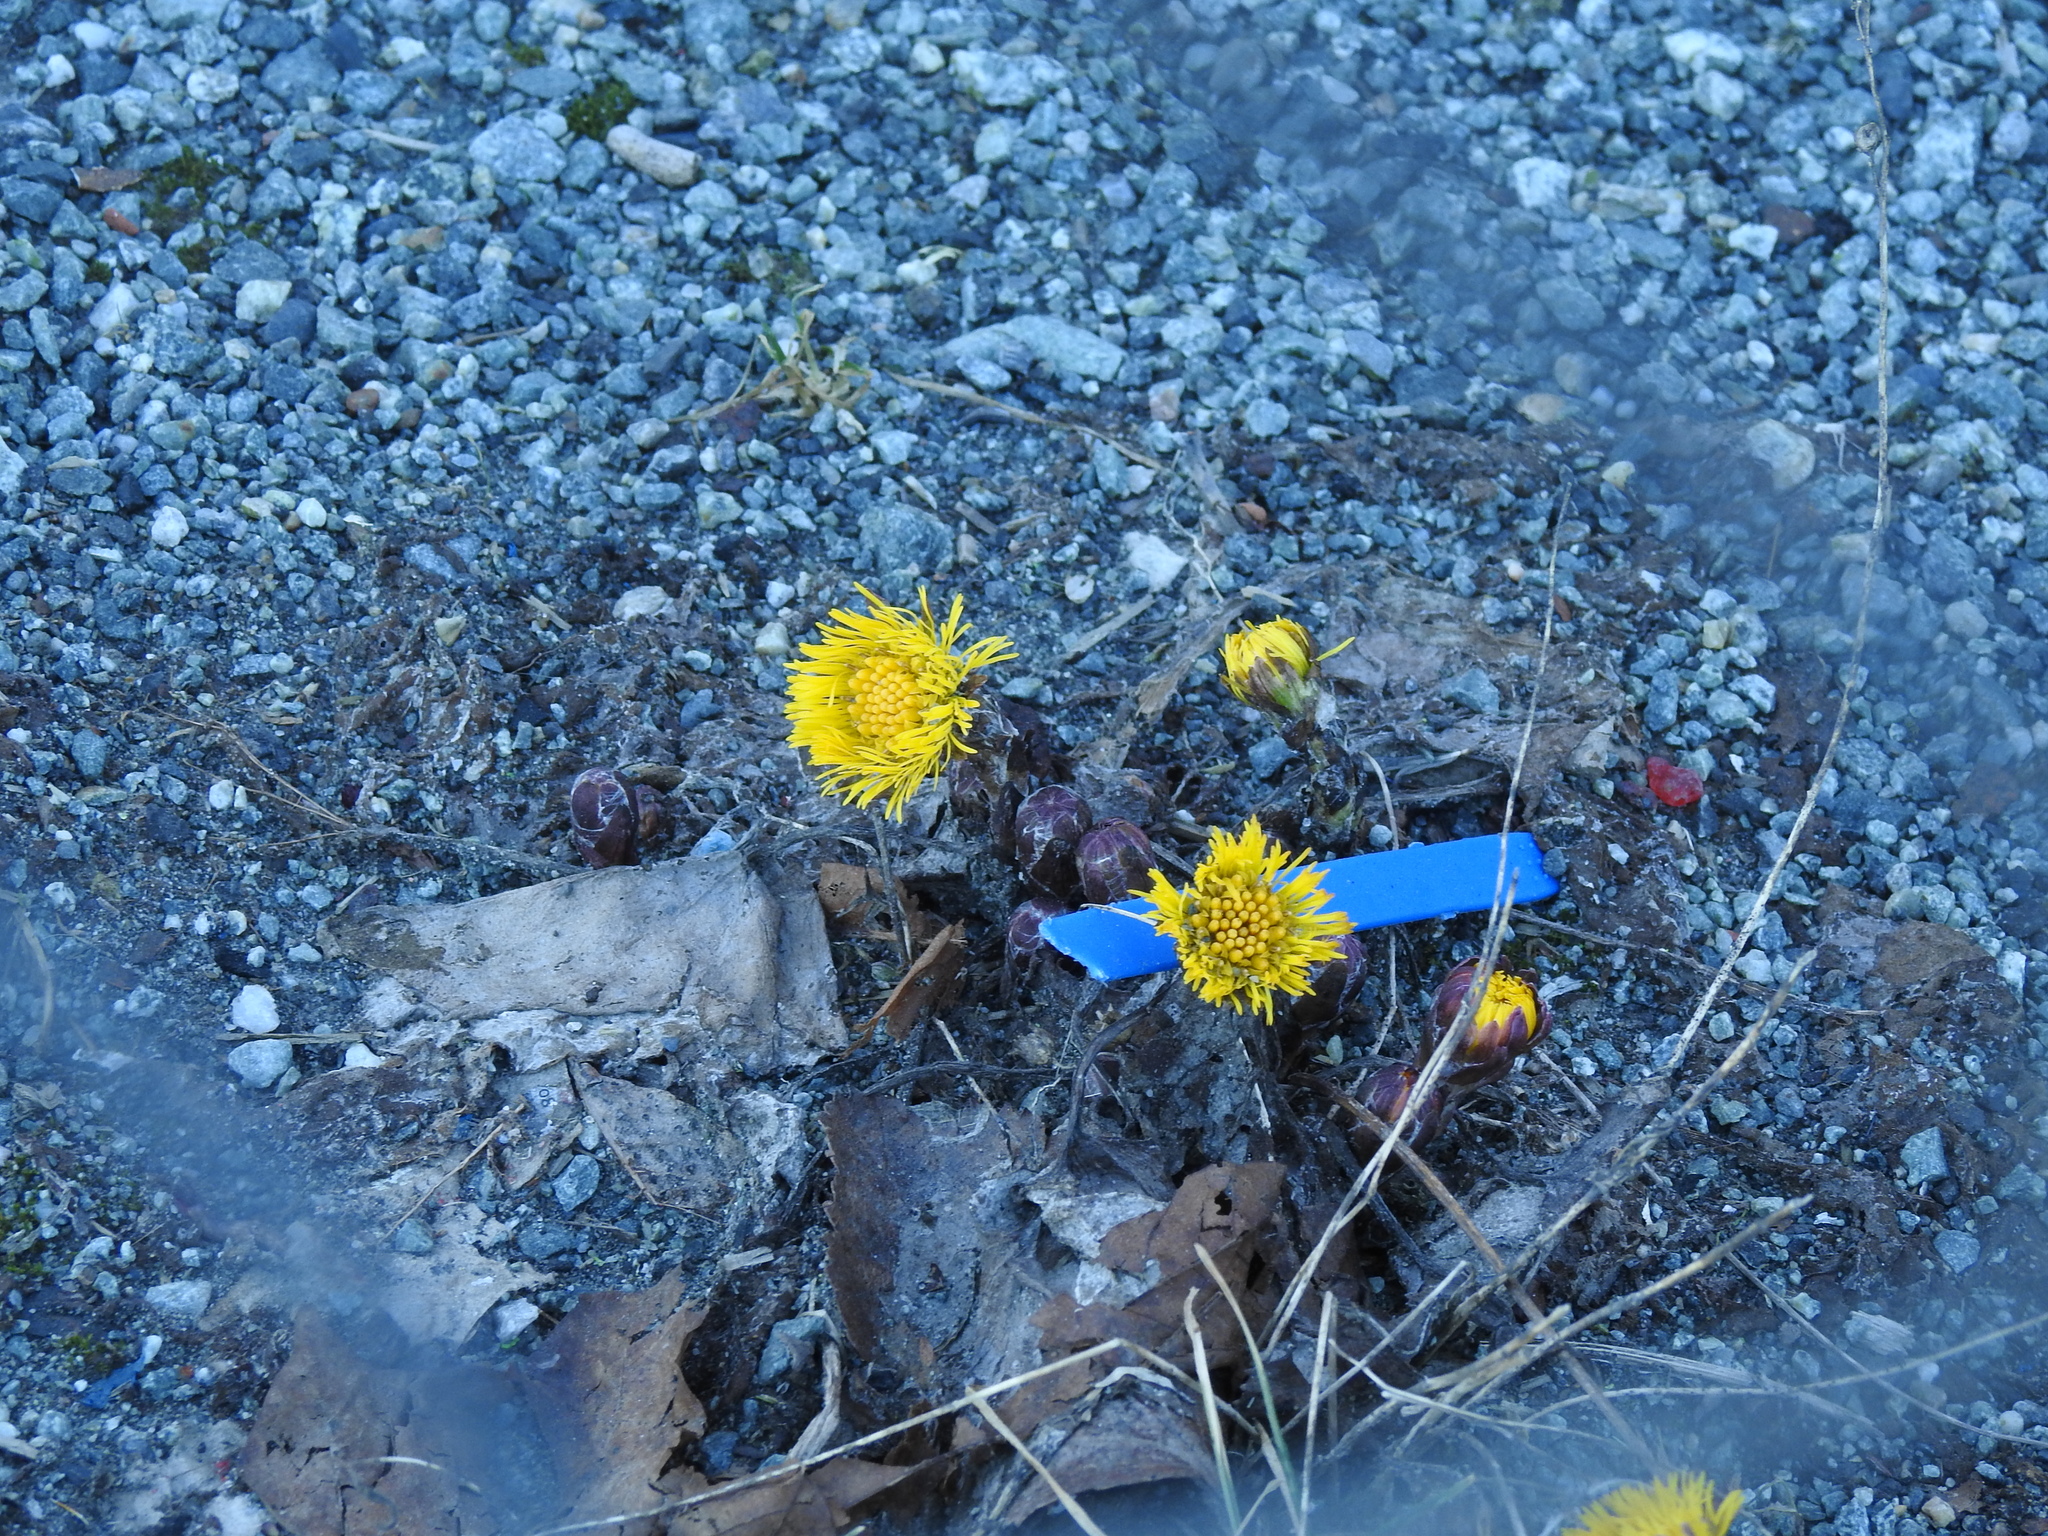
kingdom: Plantae
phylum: Tracheophyta
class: Magnoliopsida
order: Asterales
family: Asteraceae
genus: Tussilago
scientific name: Tussilago farfara
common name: Coltsfoot
